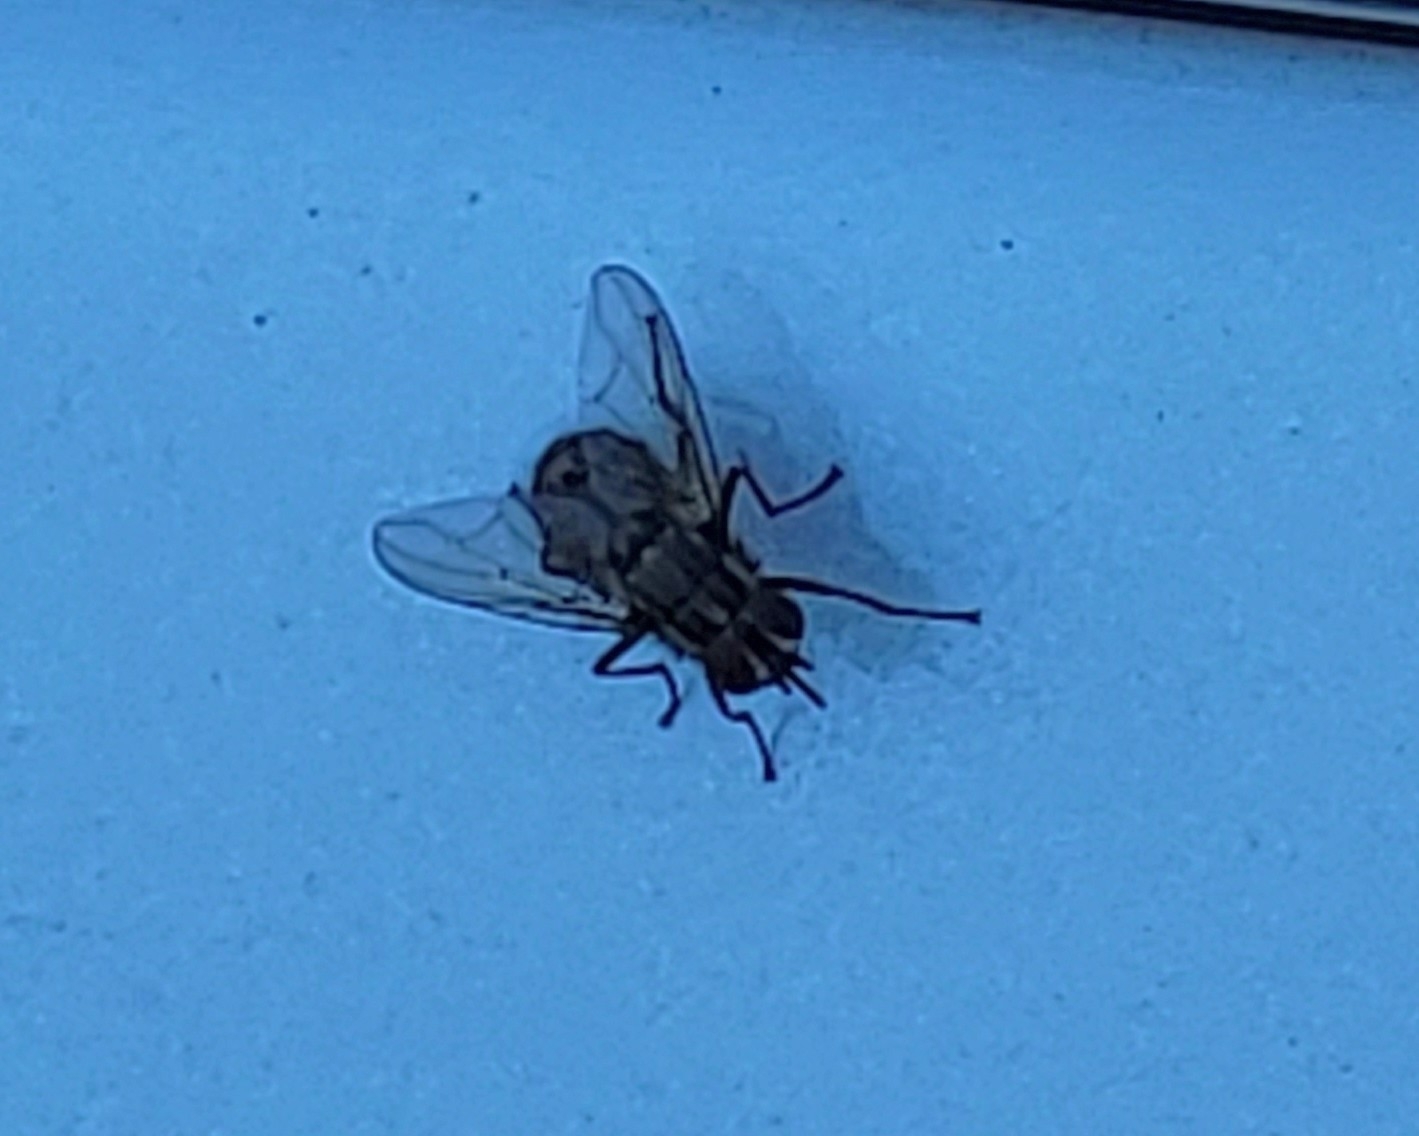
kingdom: Animalia
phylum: Arthropoda
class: Insecta
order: Diptera
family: Muscidae
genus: Stomoxys
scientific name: Stomoxys calcitrans
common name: Stable fly
